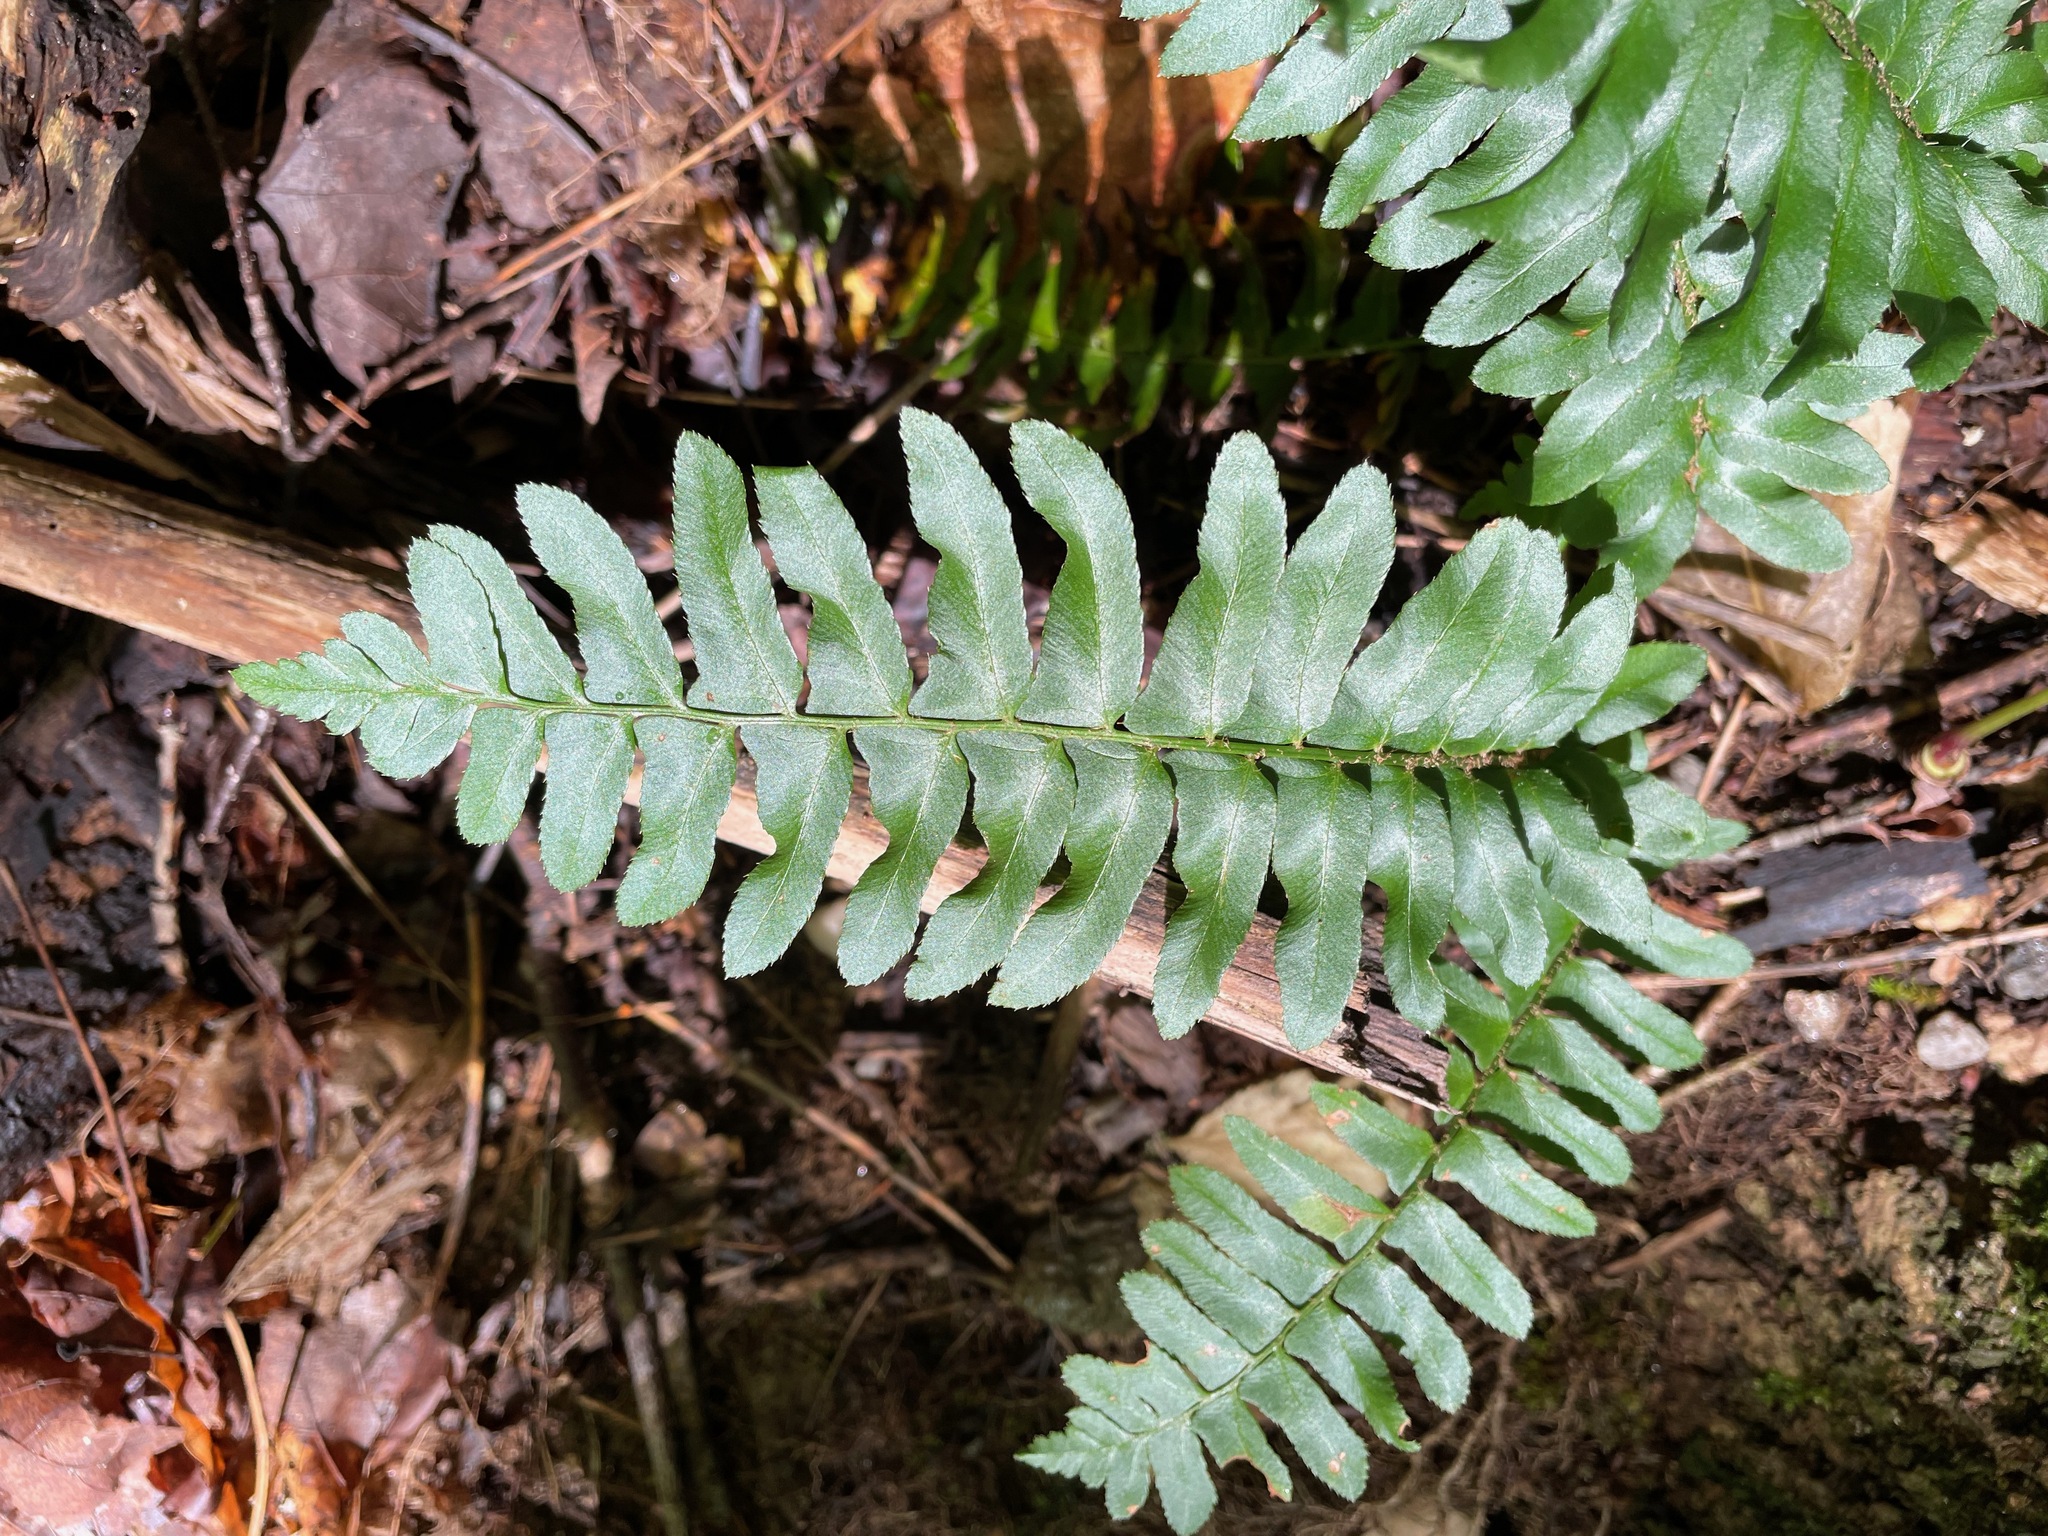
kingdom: Plantae
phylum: Tracheophyta
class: Polypodiopsida
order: Polypodiales
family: Dryopteridaceae
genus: Polystichum
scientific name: Polystichum acrostichoides
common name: Christmas fern
